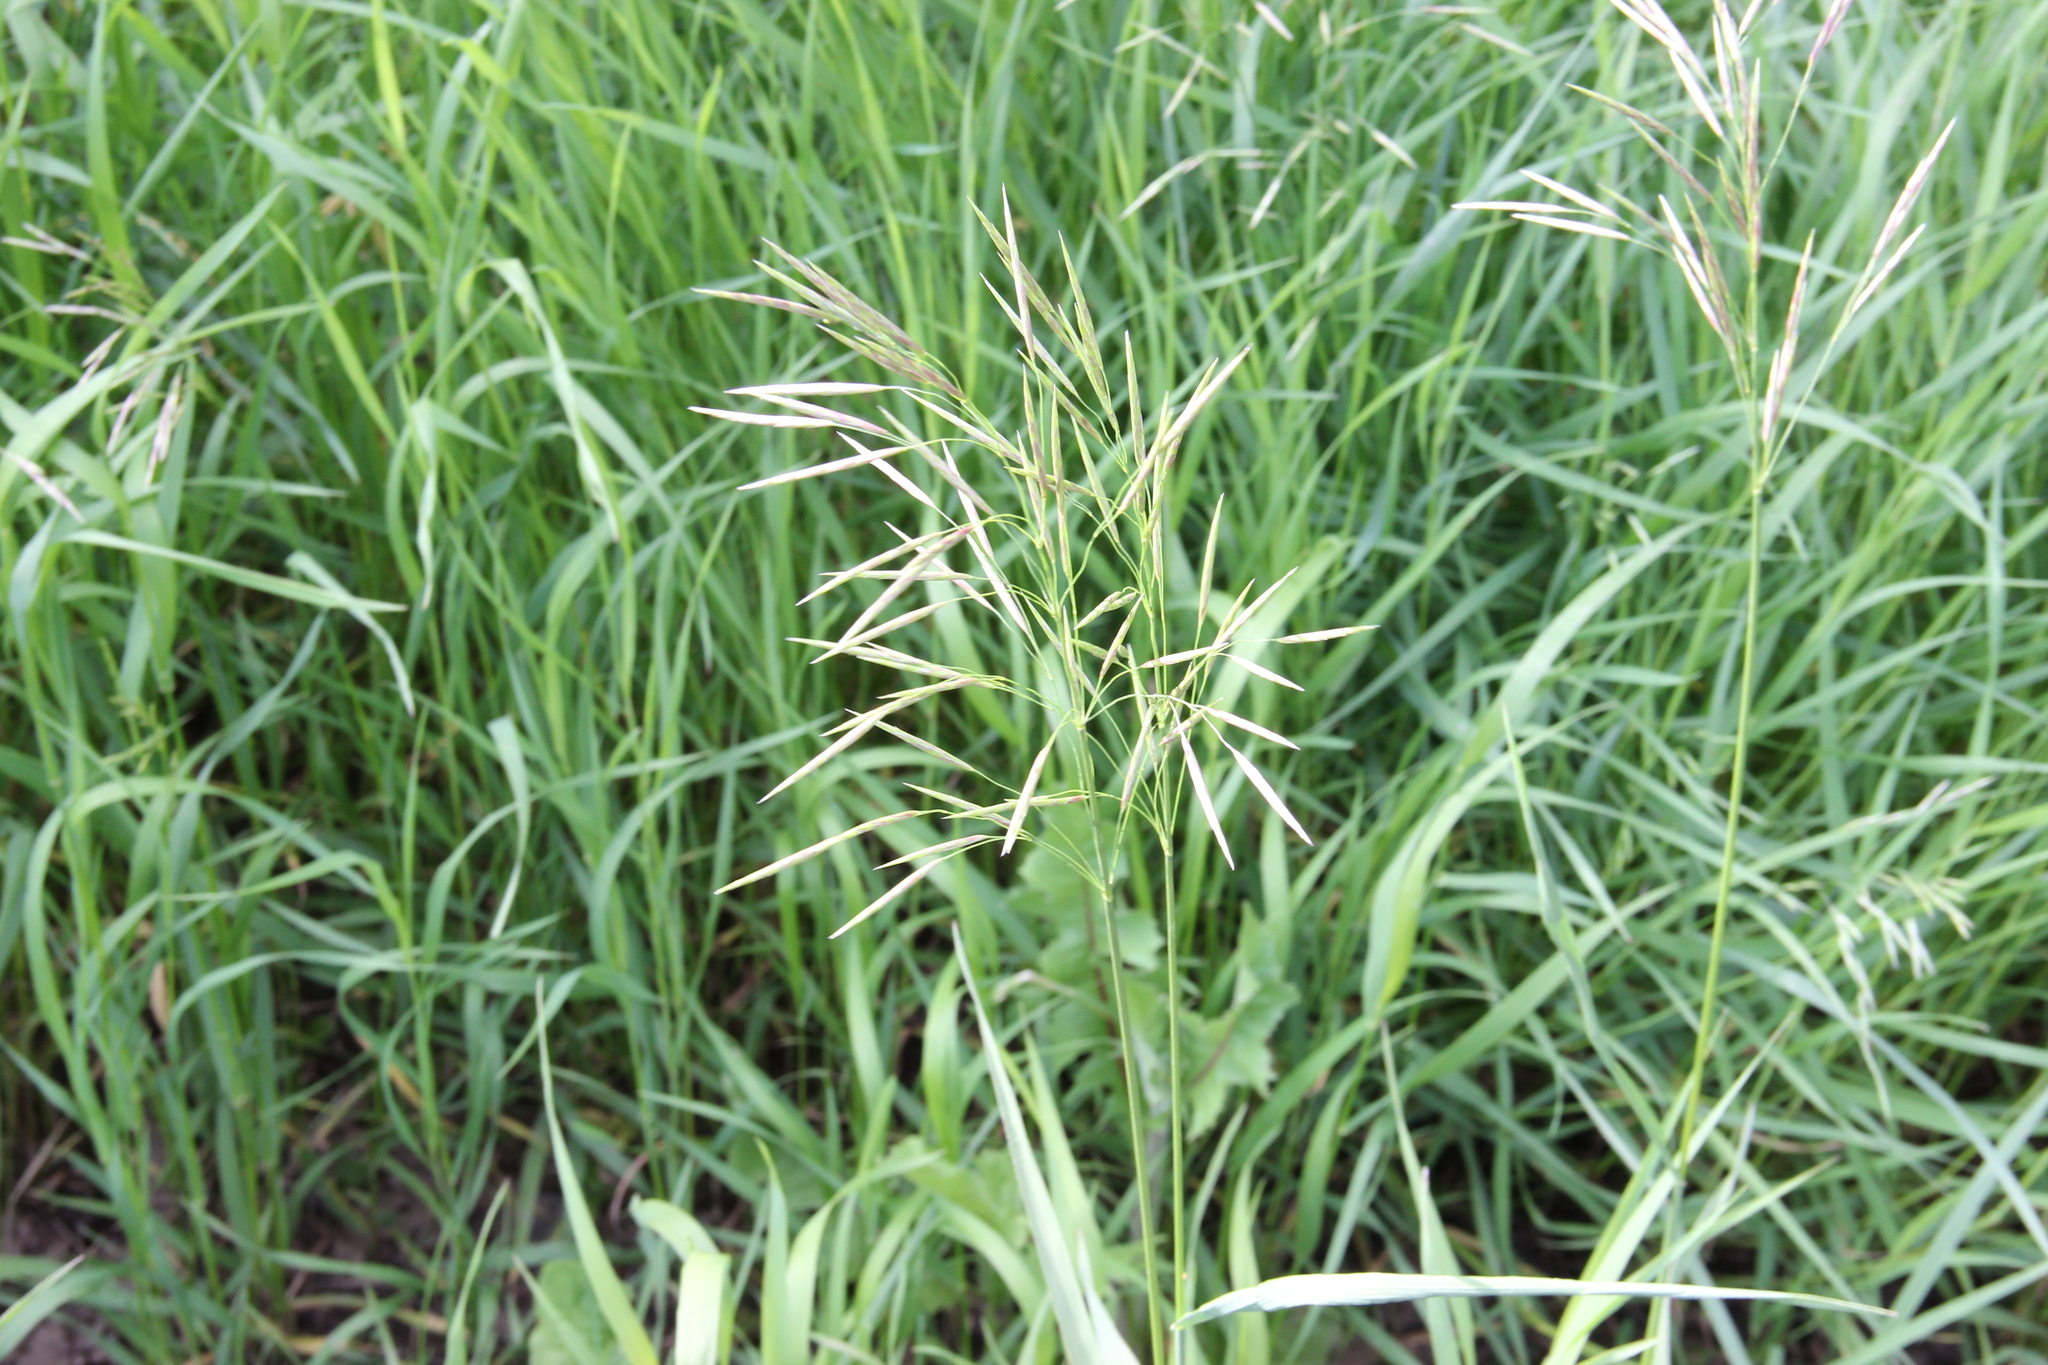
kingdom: Plantae
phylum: Tracheophyta
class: Liliopsida
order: Poales
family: Poaceae
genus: Bromus
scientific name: Bromus inermis
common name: Smooth brome
